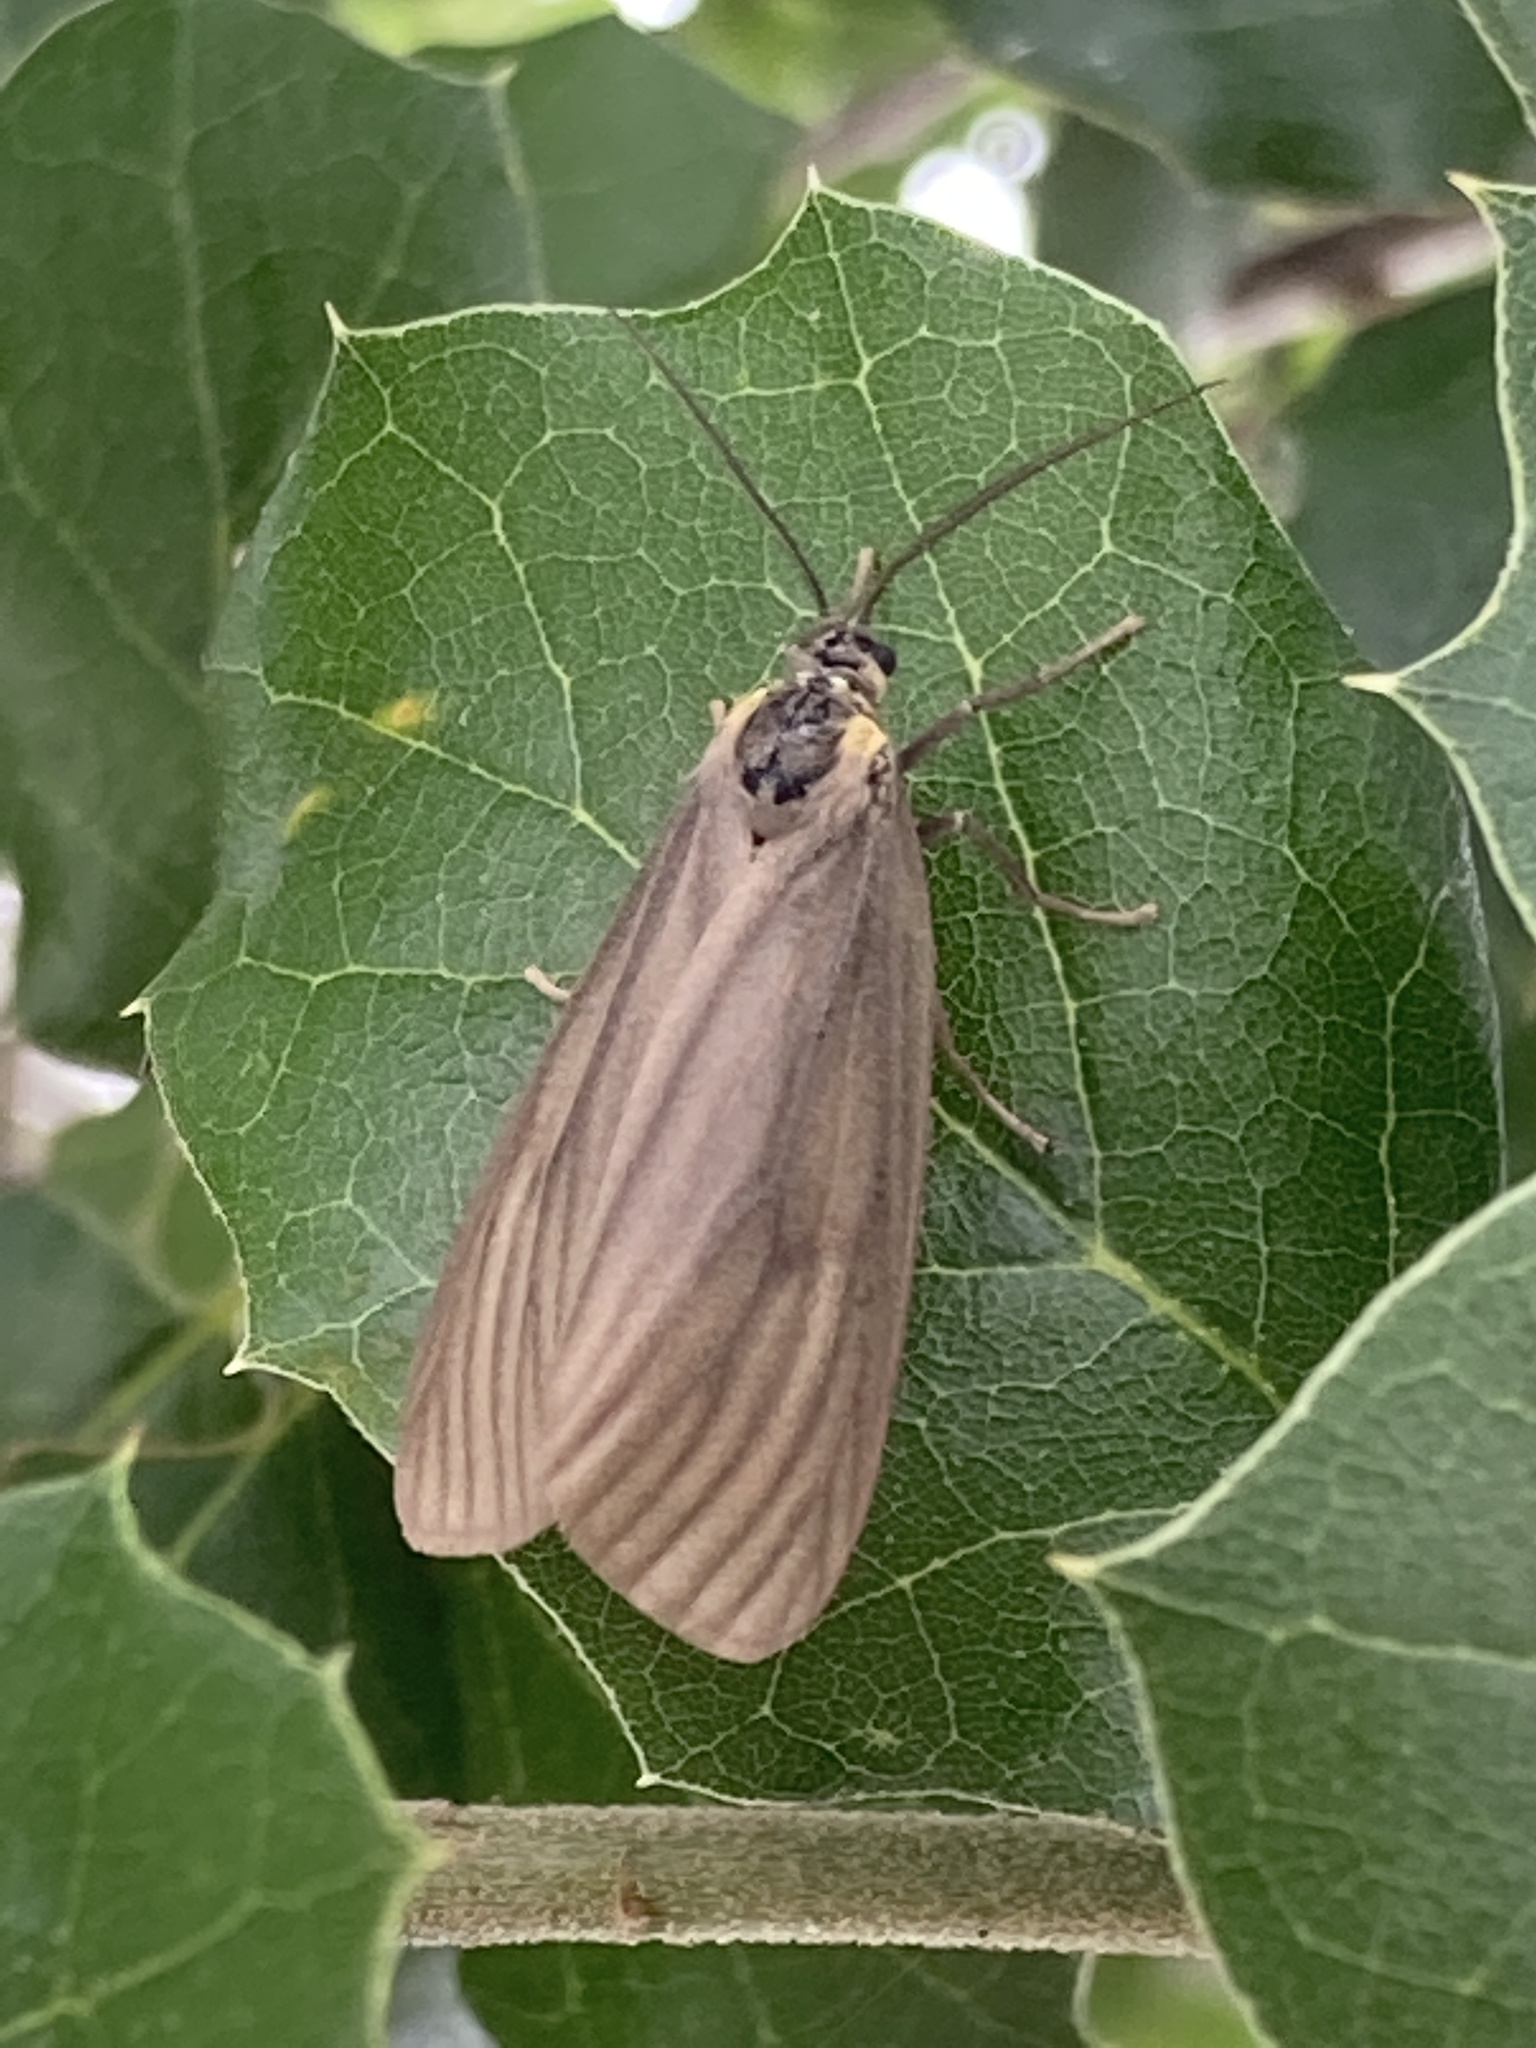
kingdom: Animalia
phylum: Arthropoda
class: Insecta
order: Lepidoptera
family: Notodontidae
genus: Phryganidia
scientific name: Phryganidia californica
